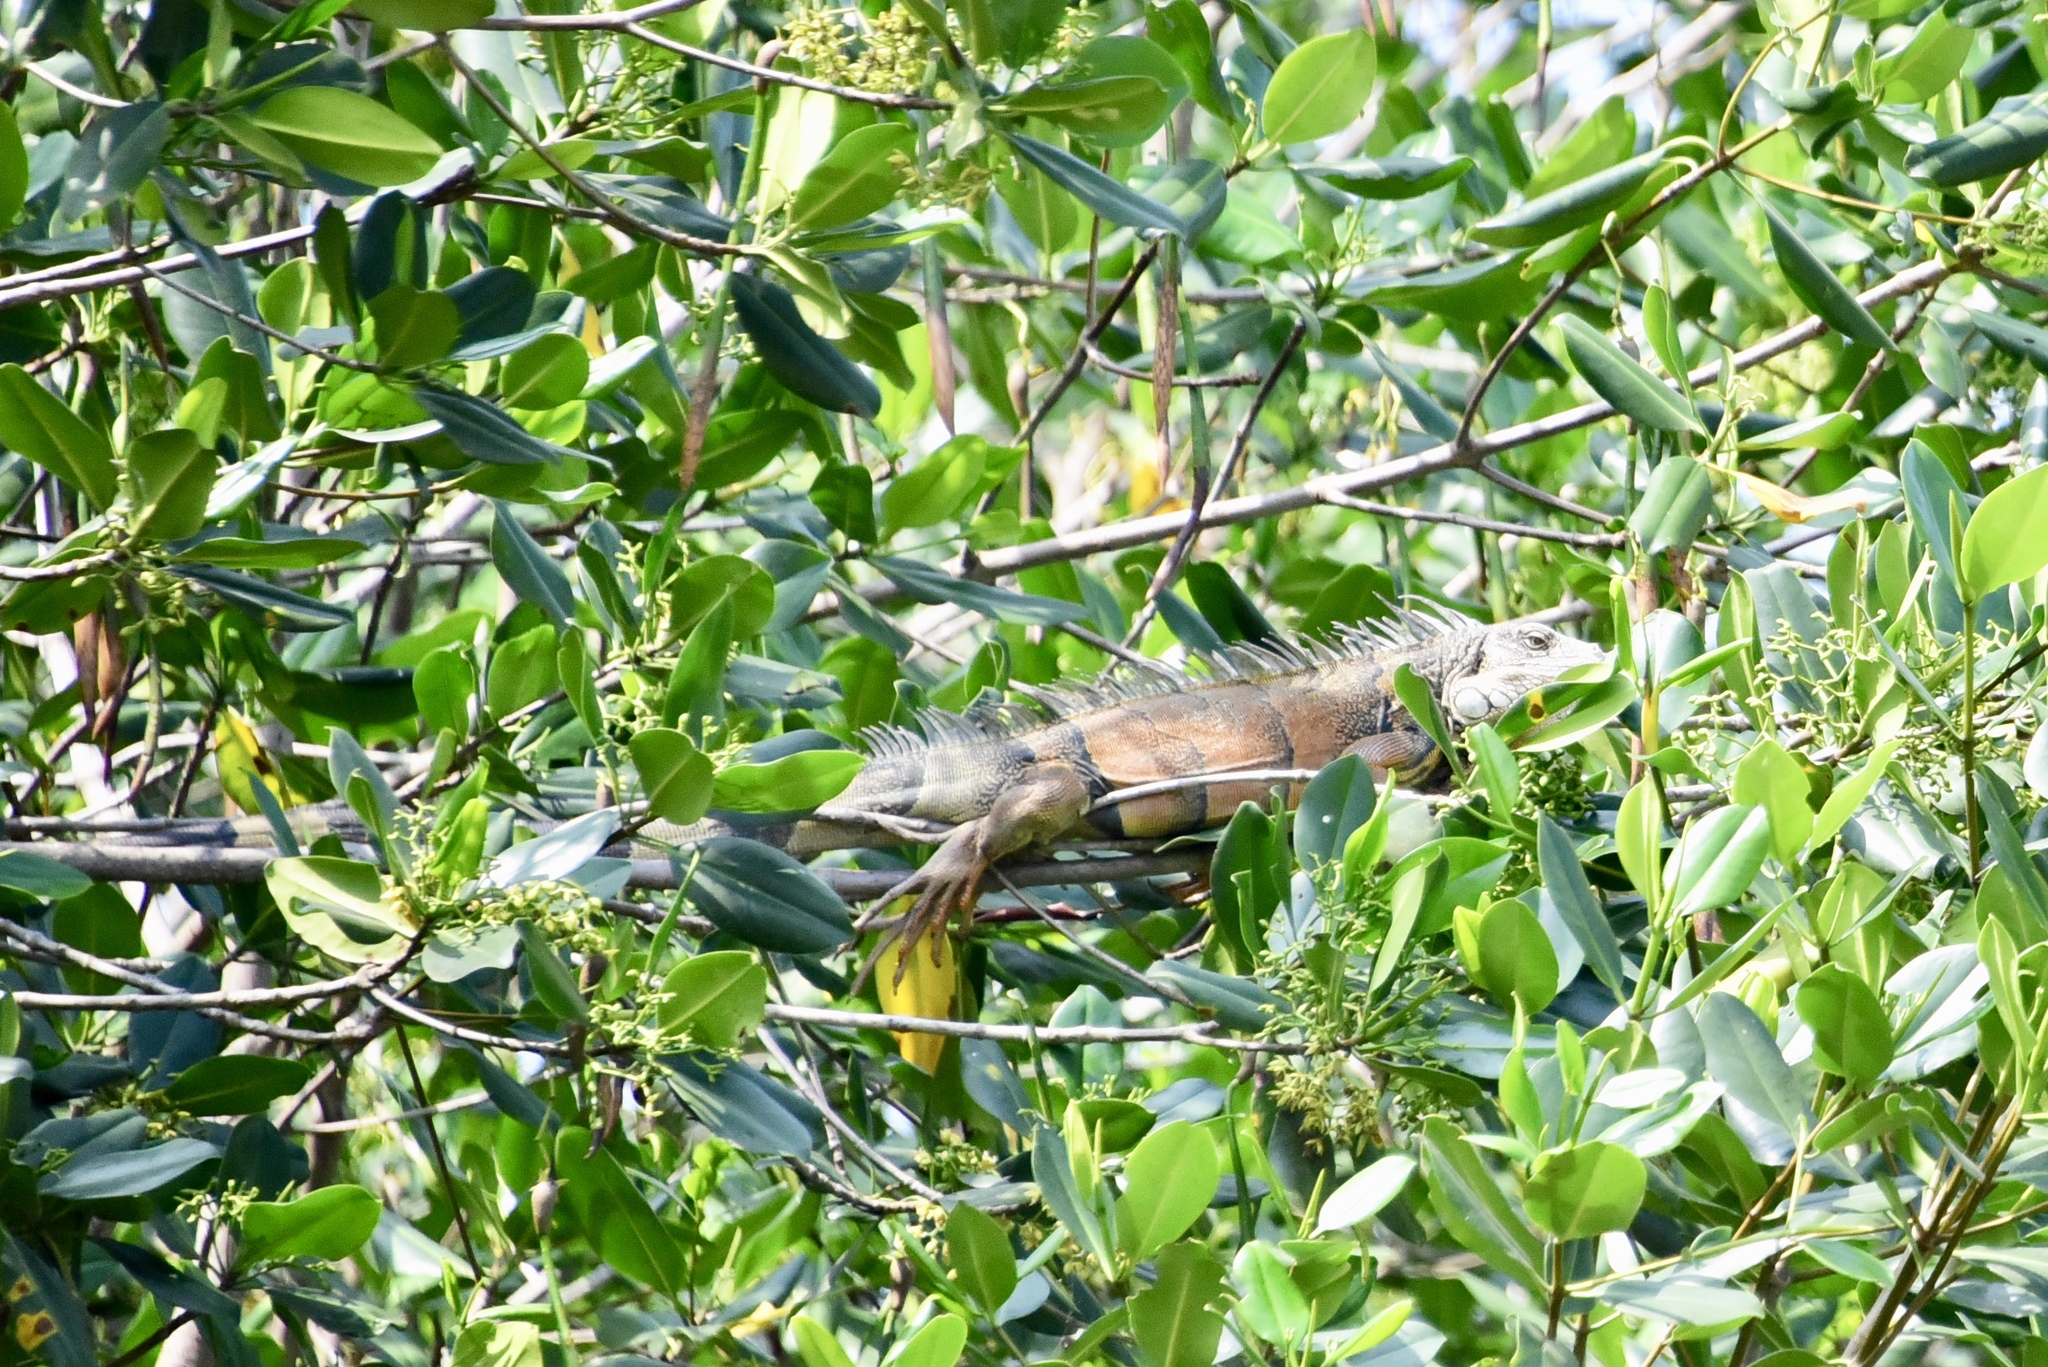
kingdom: Animalia
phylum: Chordata
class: Squamata
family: Iguanidae
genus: Iguana
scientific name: Iguana iguana
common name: Green iguana
